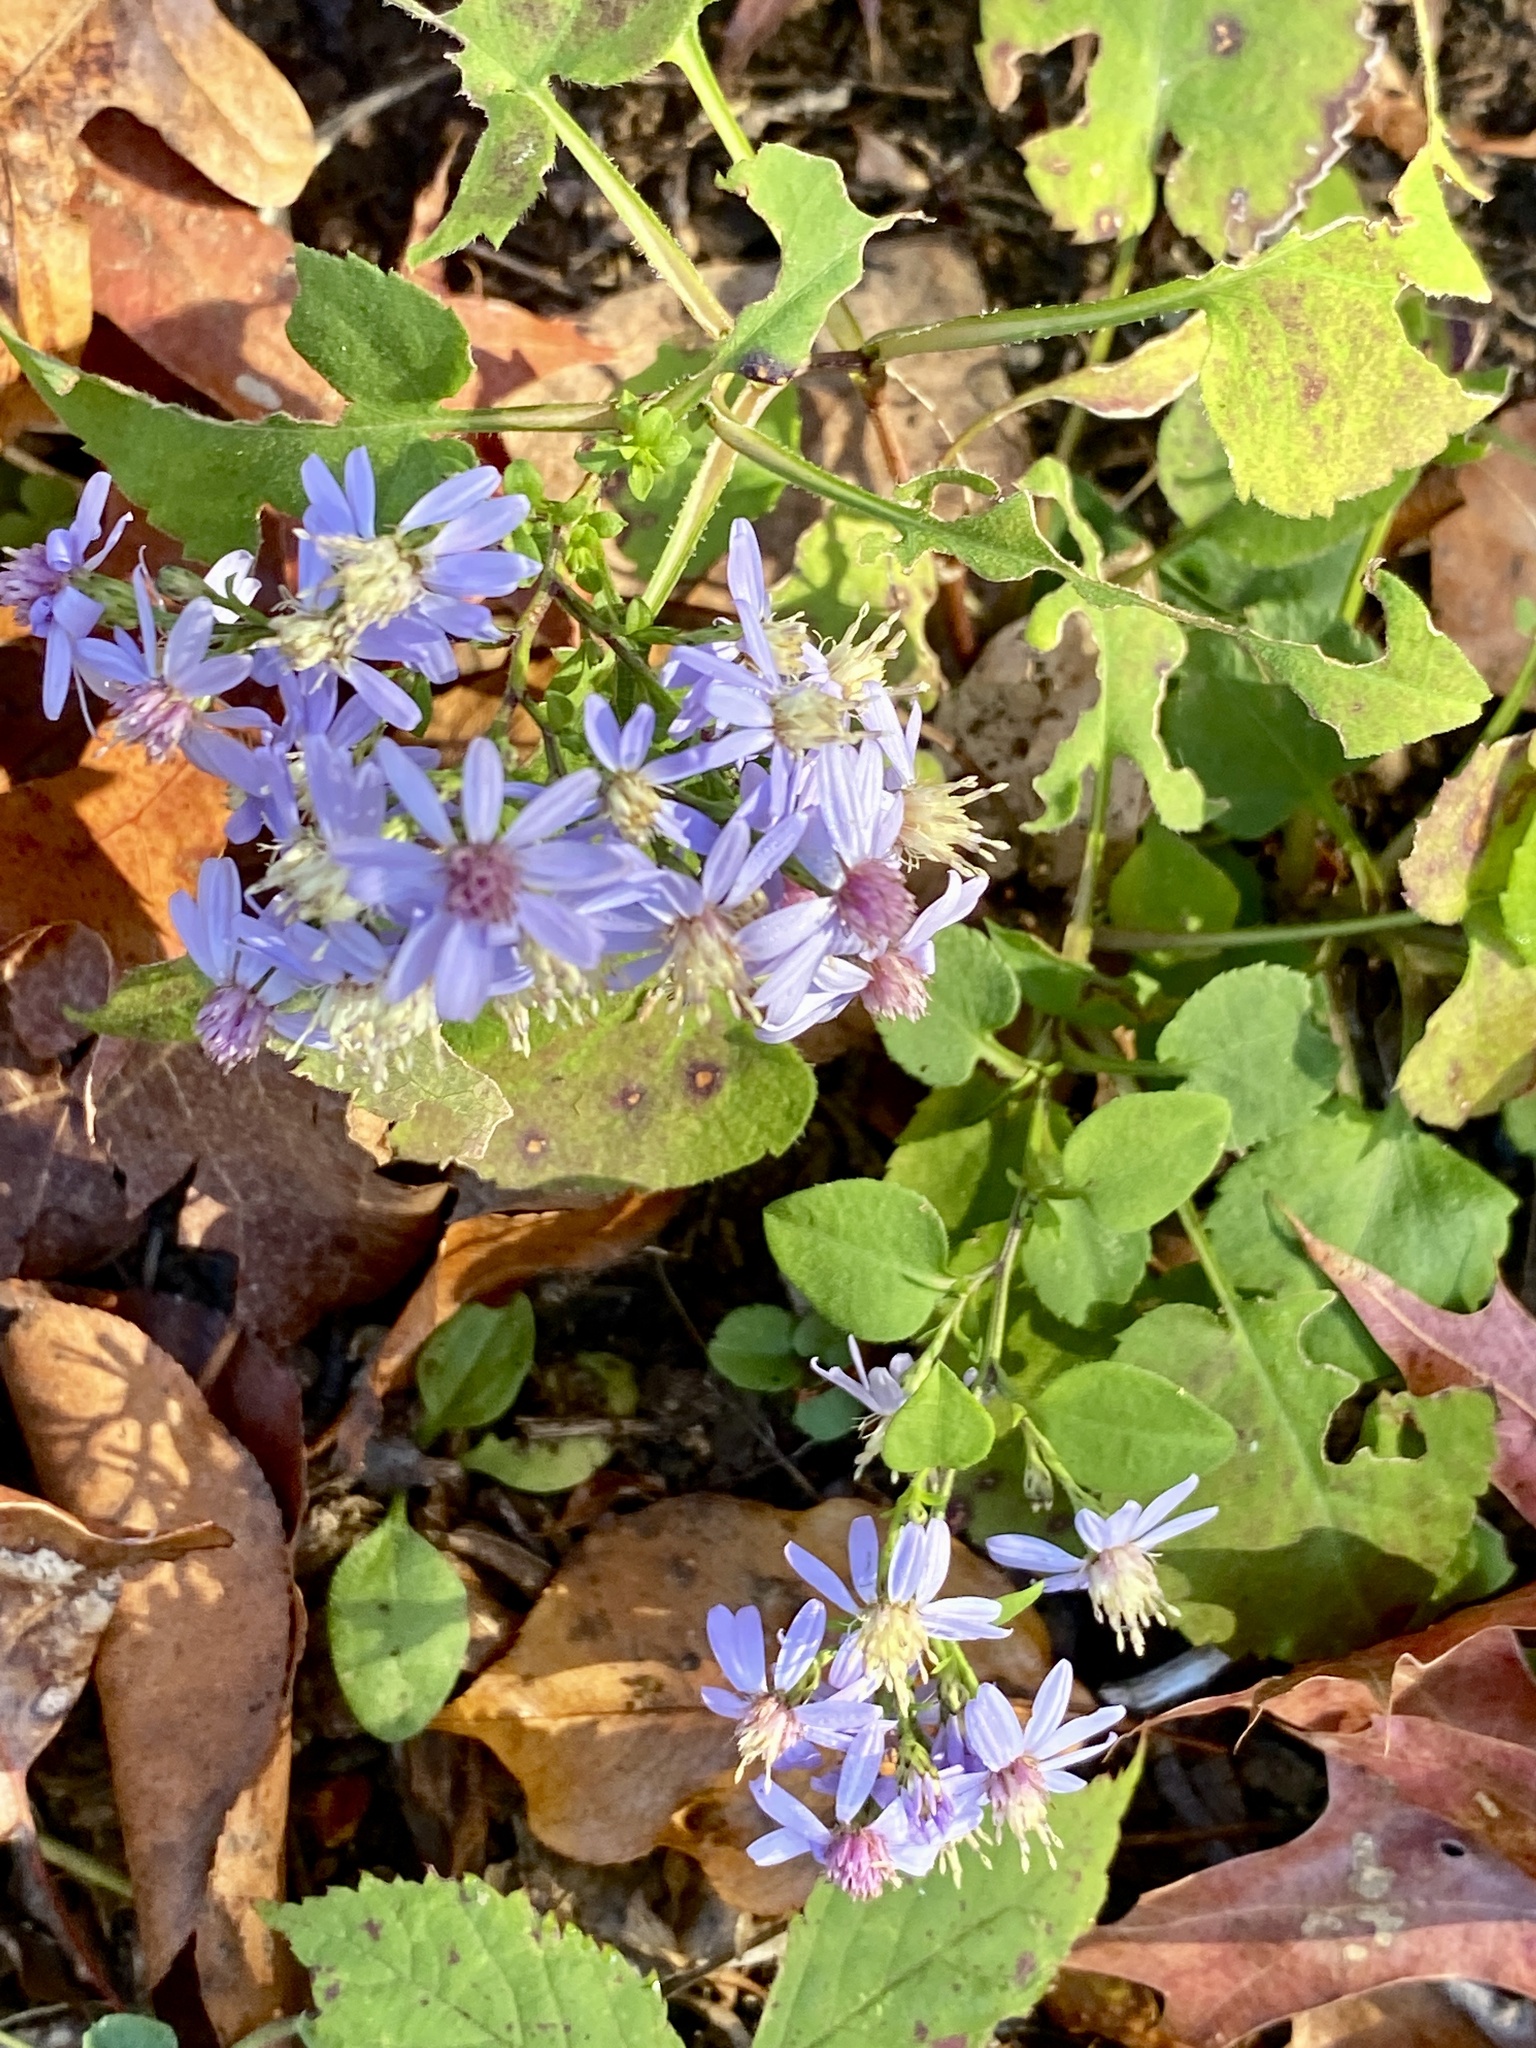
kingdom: Plantae
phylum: Tracheophyta
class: Magnoliopsida
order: Asterales
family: Asteraceae
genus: Symphyotrichum
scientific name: Symphyotrichum cordifolium
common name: Beeweed
